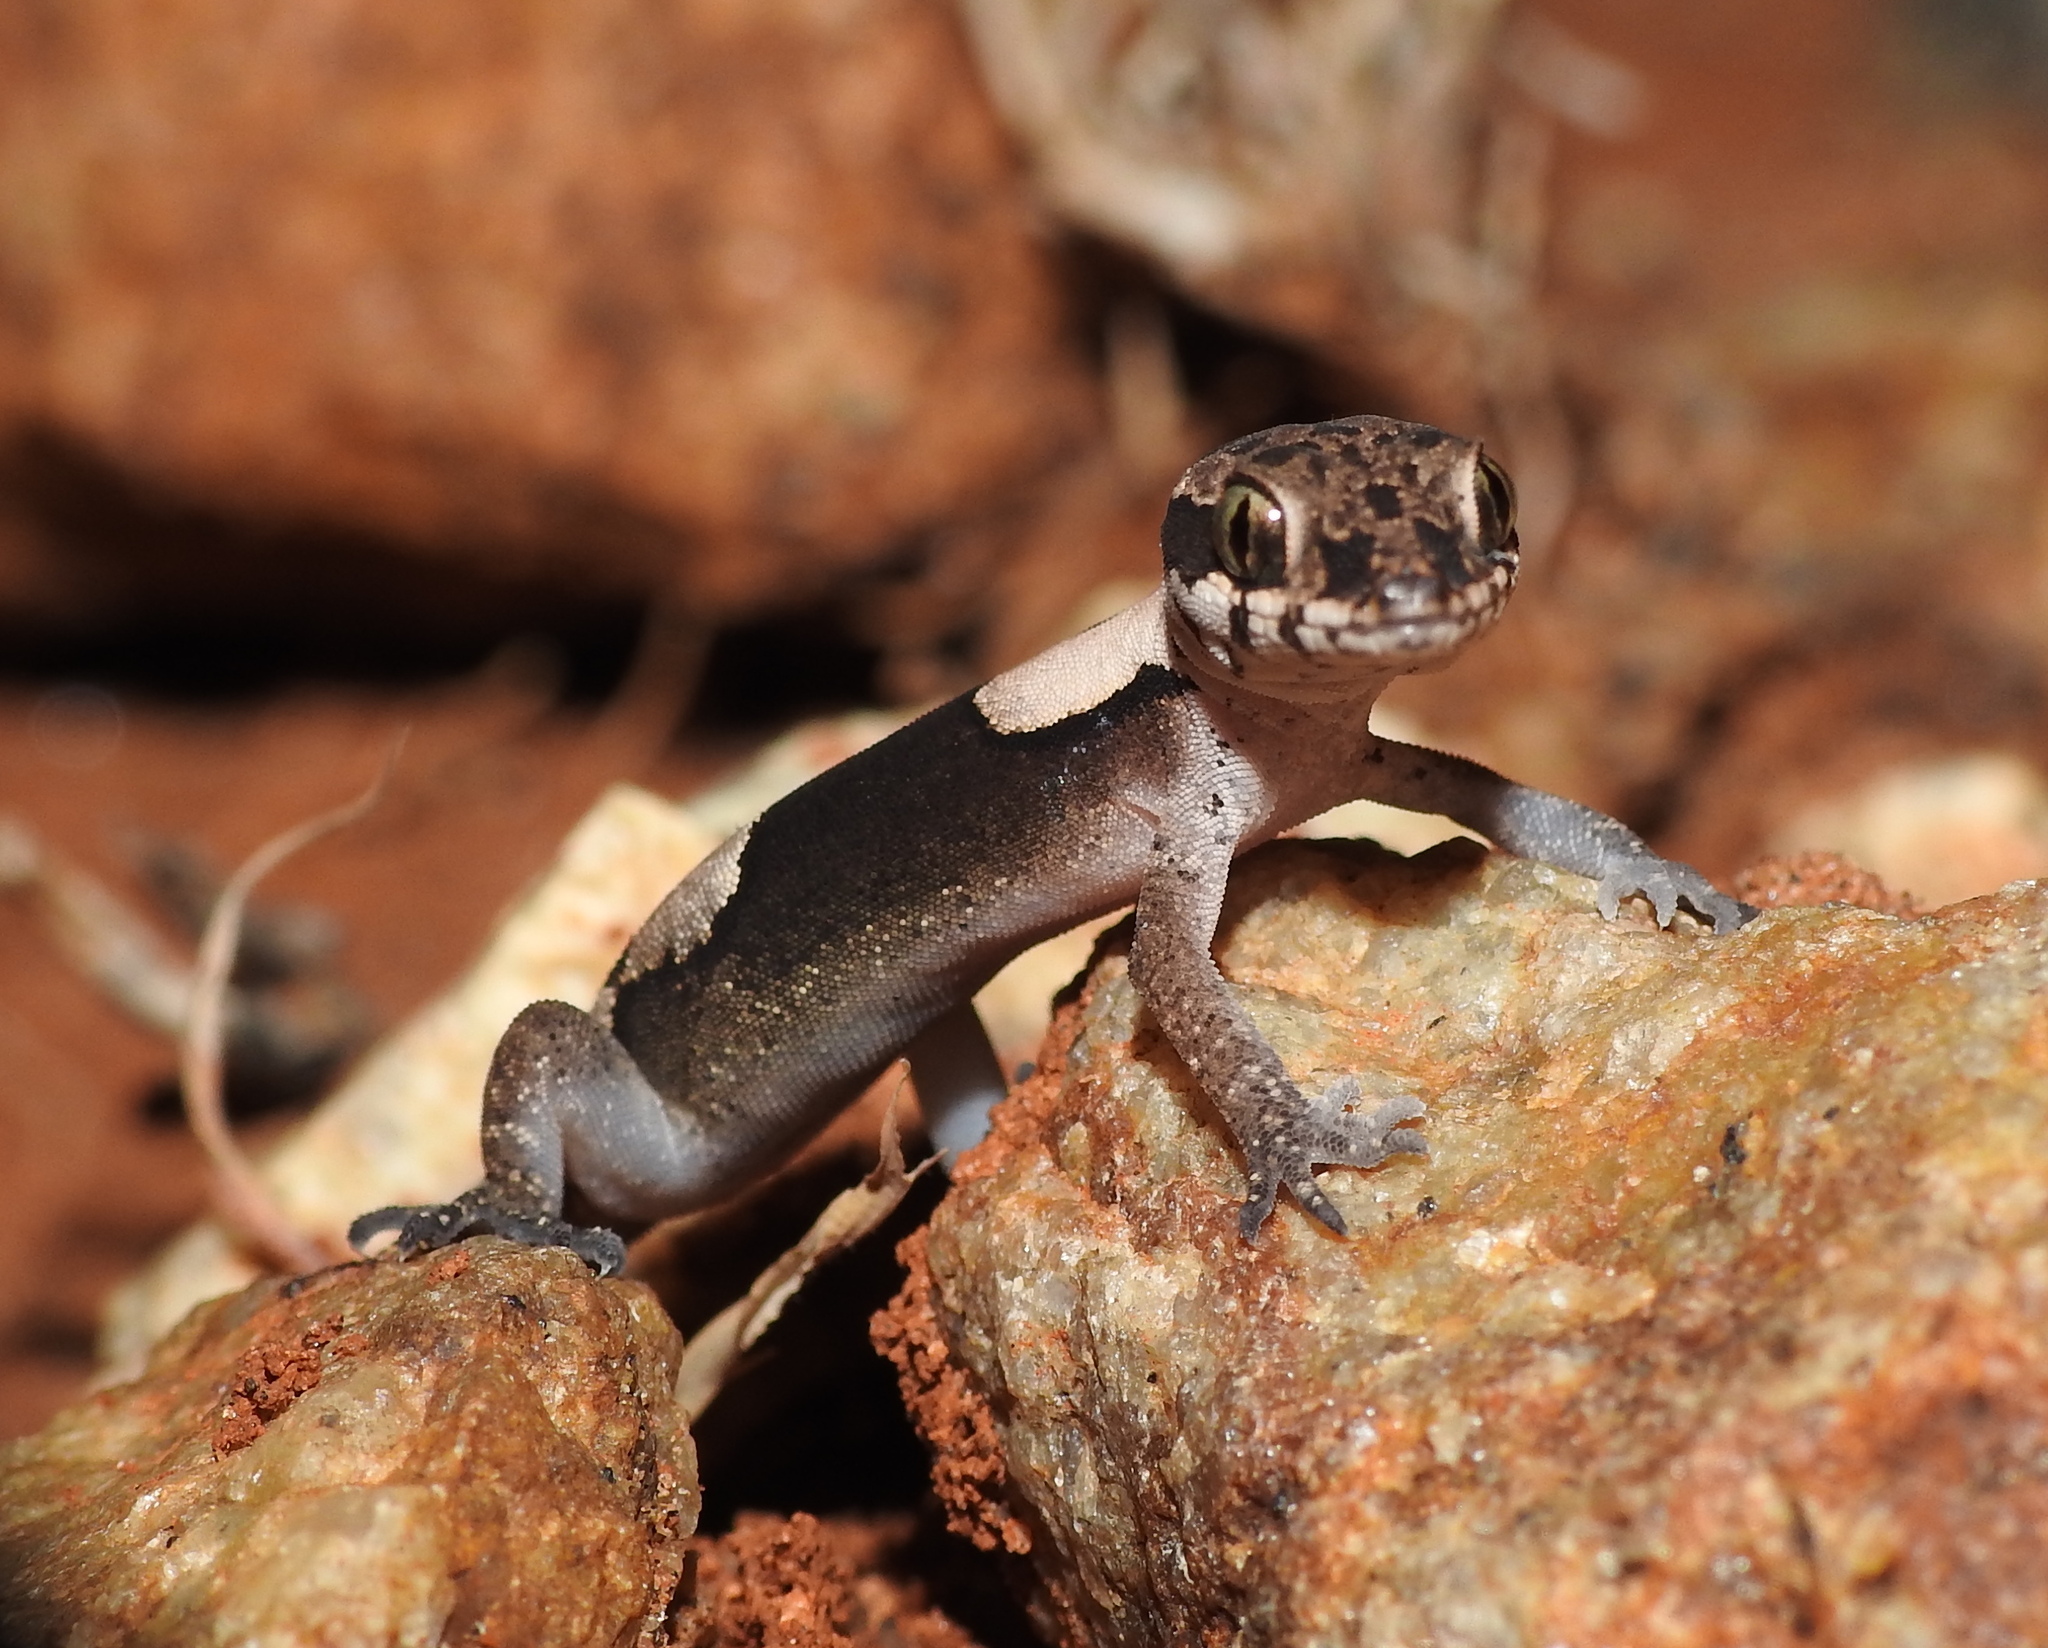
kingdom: Animalia
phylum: Chordata
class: Squamata
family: Gekkonidae
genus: Cyrtodactylus
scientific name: Cyrtodactylus aravindi
